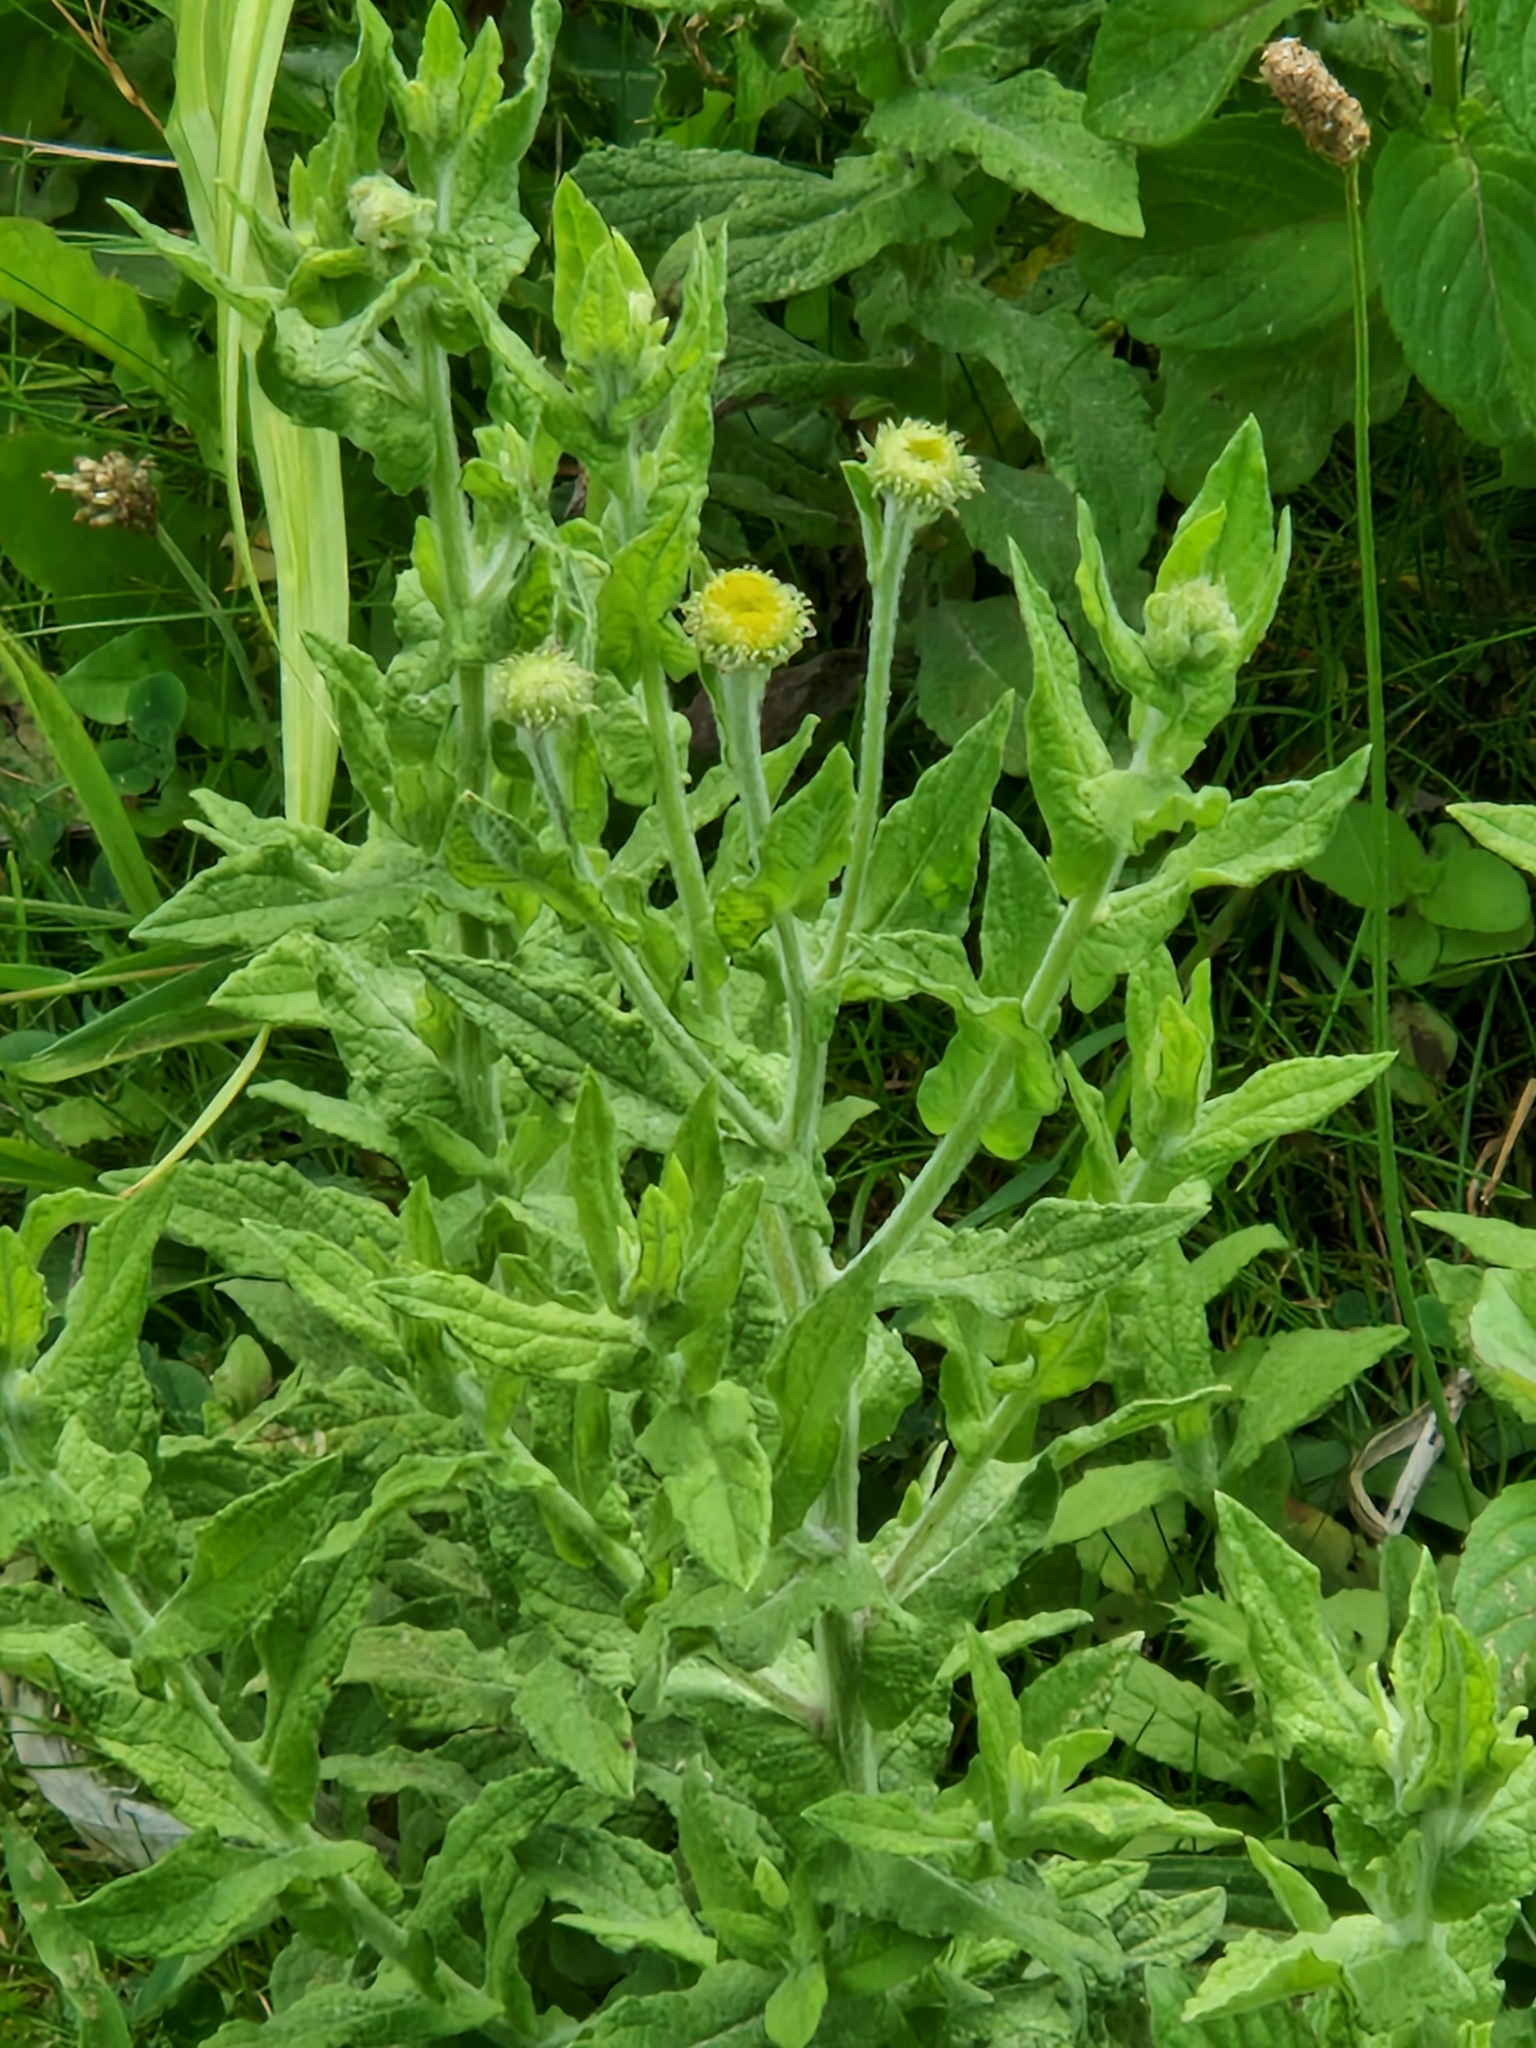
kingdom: Plantae
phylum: Tracheophyta
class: Magnoliopsida
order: Asterales
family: Asteraceae
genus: Pulicaria
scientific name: Pulicaria dysenterica
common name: Common fleabane
